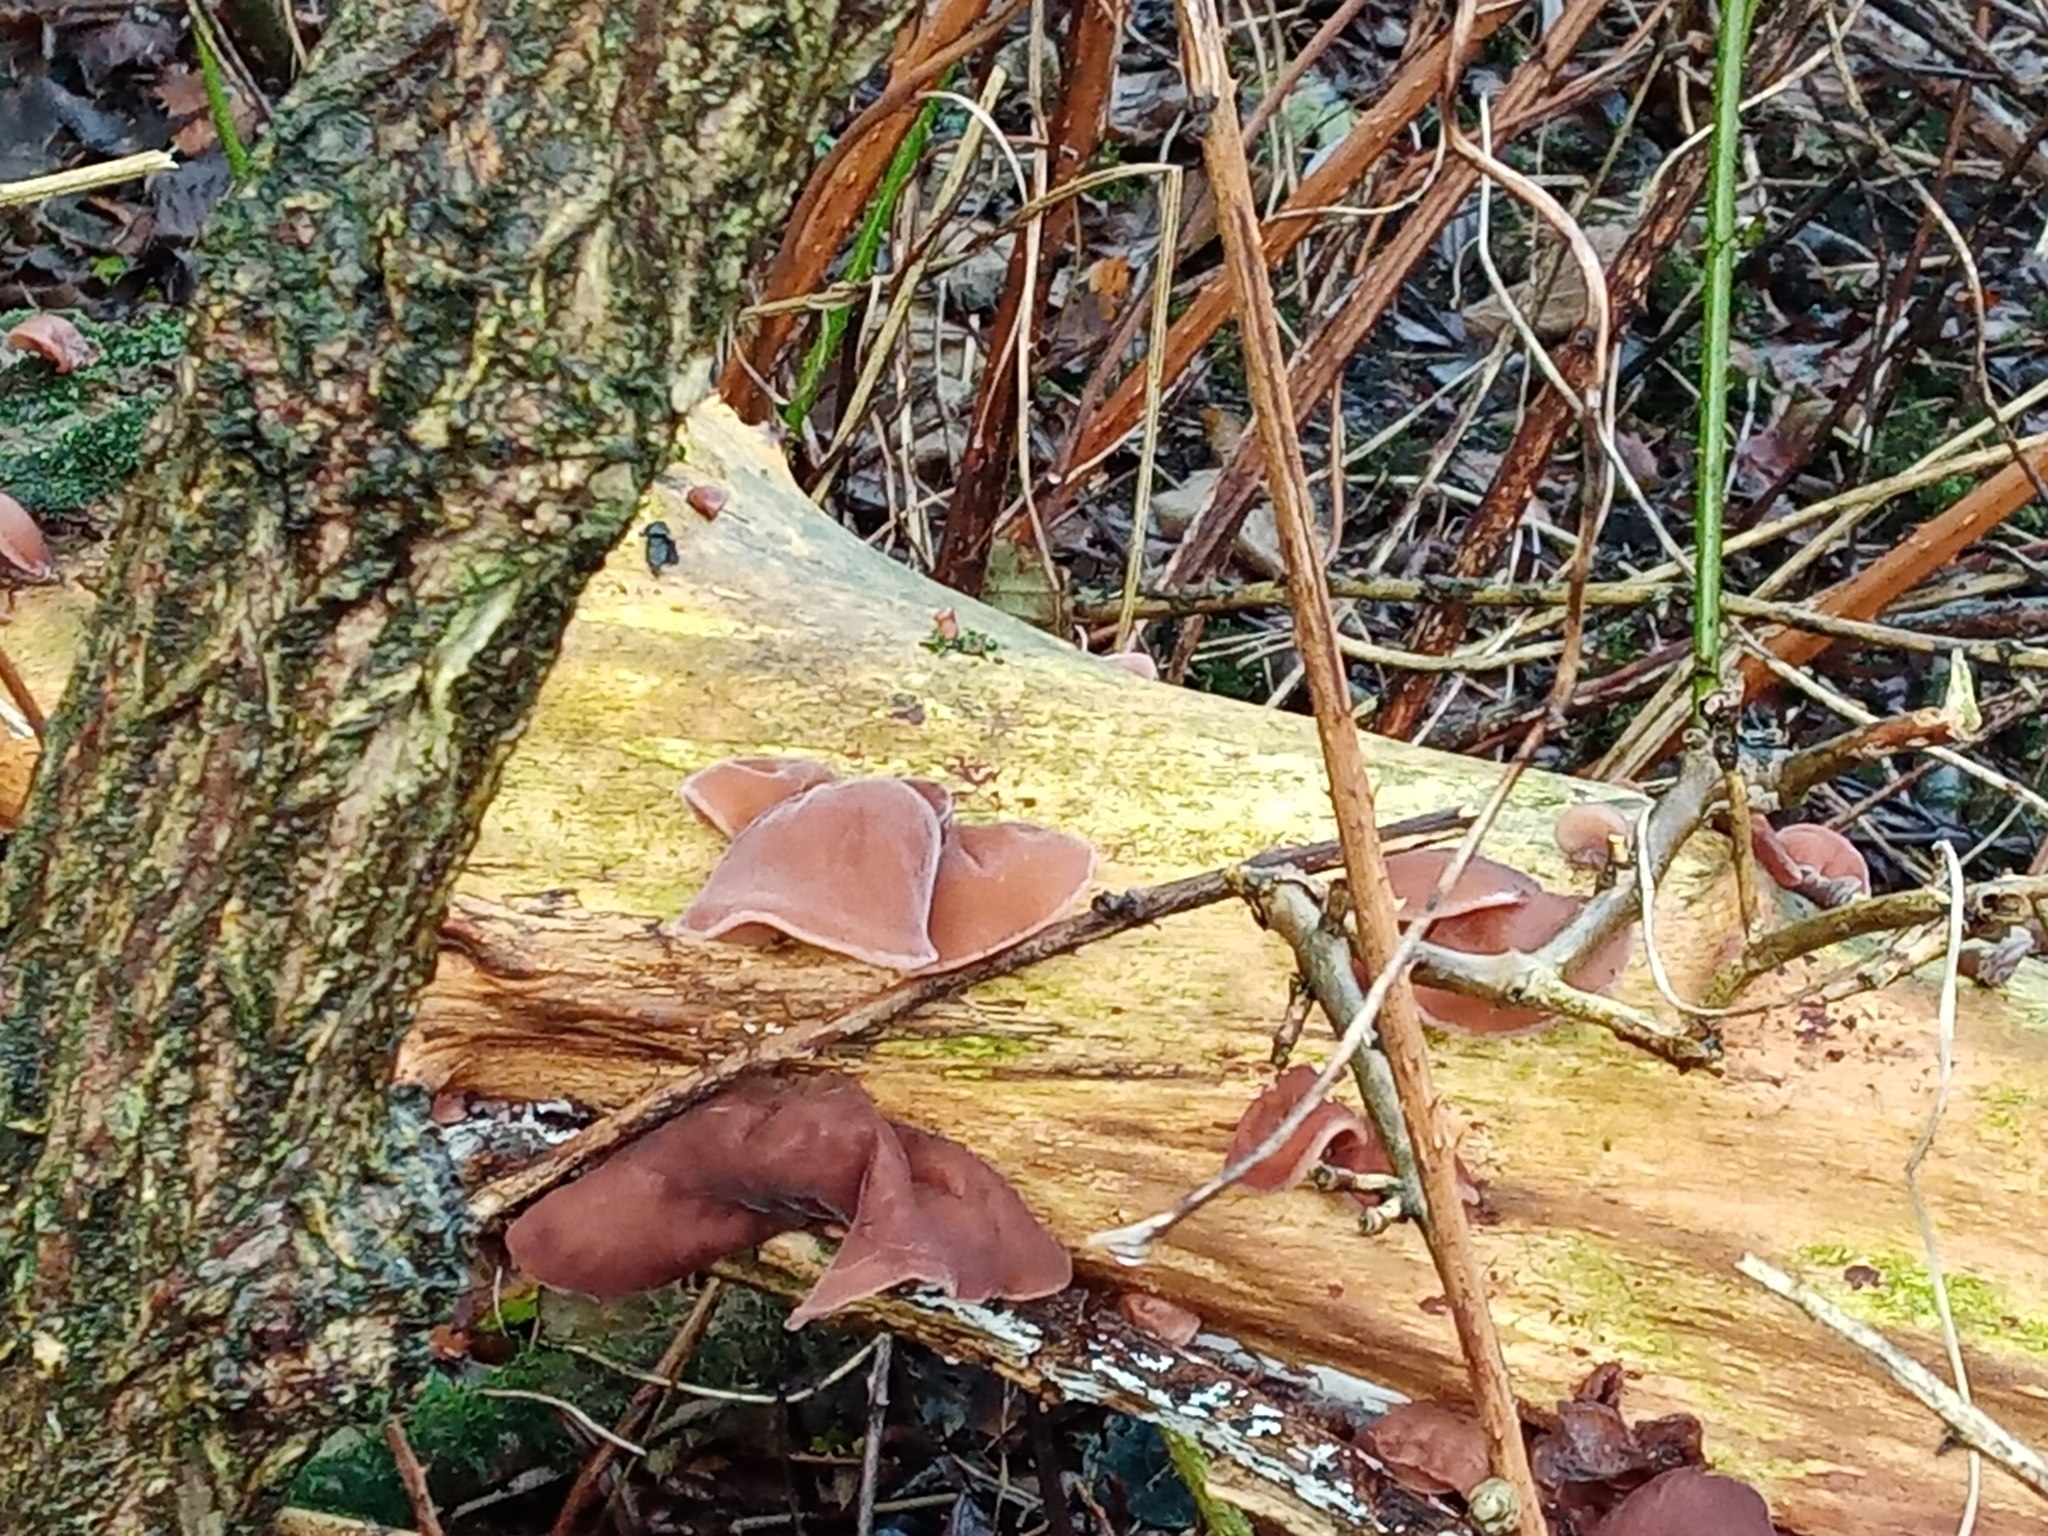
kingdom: Fungi
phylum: Basidiomycota
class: Agaricomycetes
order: Auriculariales
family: Auriculariaceae
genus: Auricularia
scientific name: Auricularia auricula-judae
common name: Jelly ear
